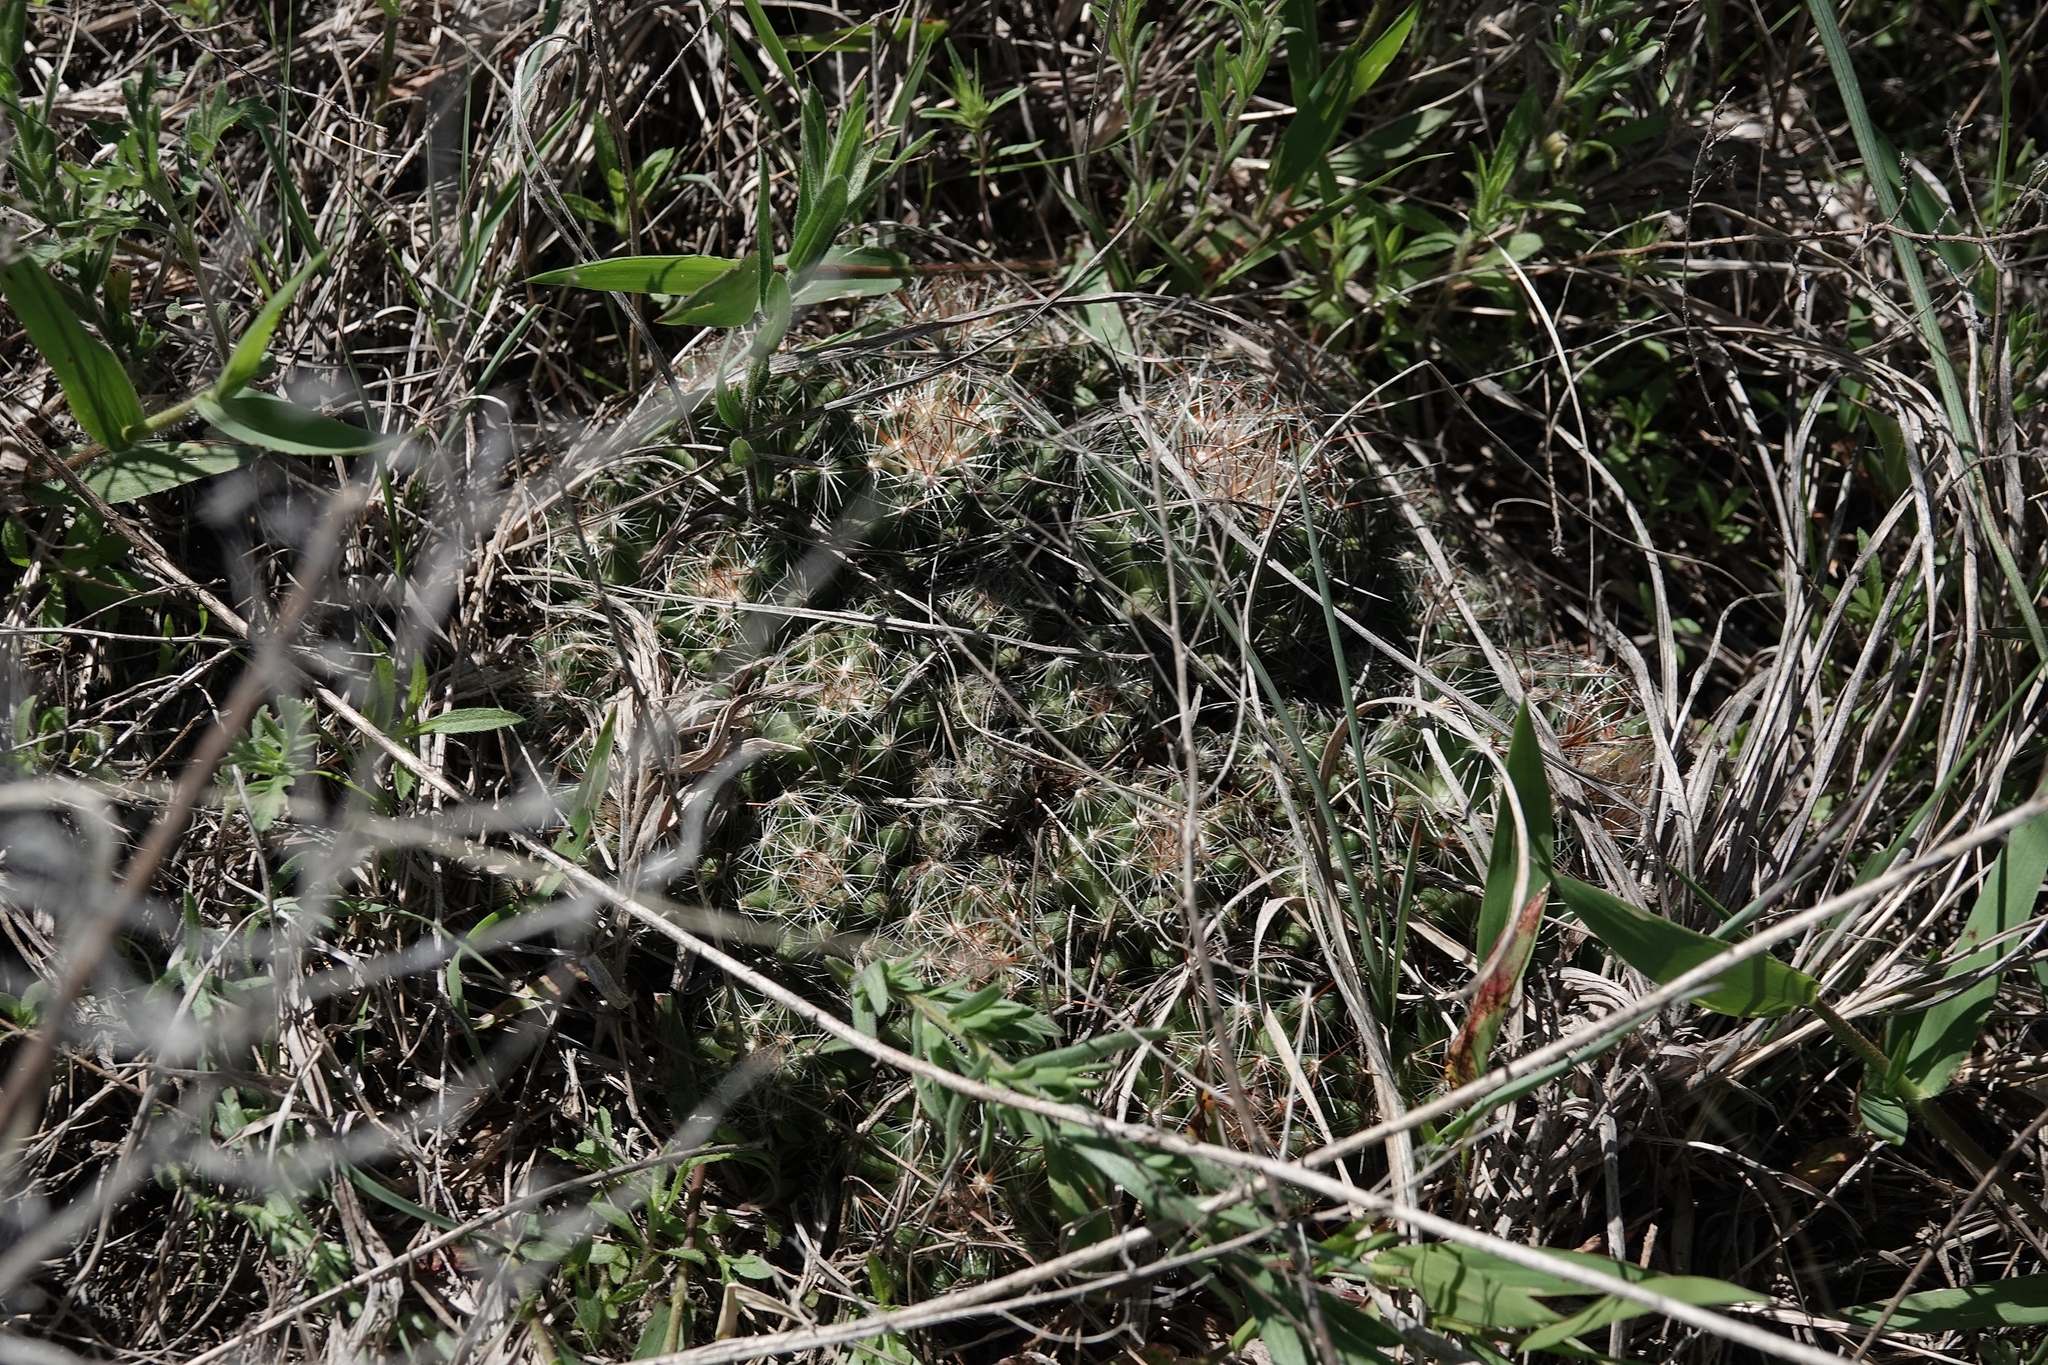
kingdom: Plantae
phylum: Tracheophyta
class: Magnoliopsida
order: Caryophyllales
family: Cactaceae
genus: Pelecyphora
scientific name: Pelecyphora vivipara
